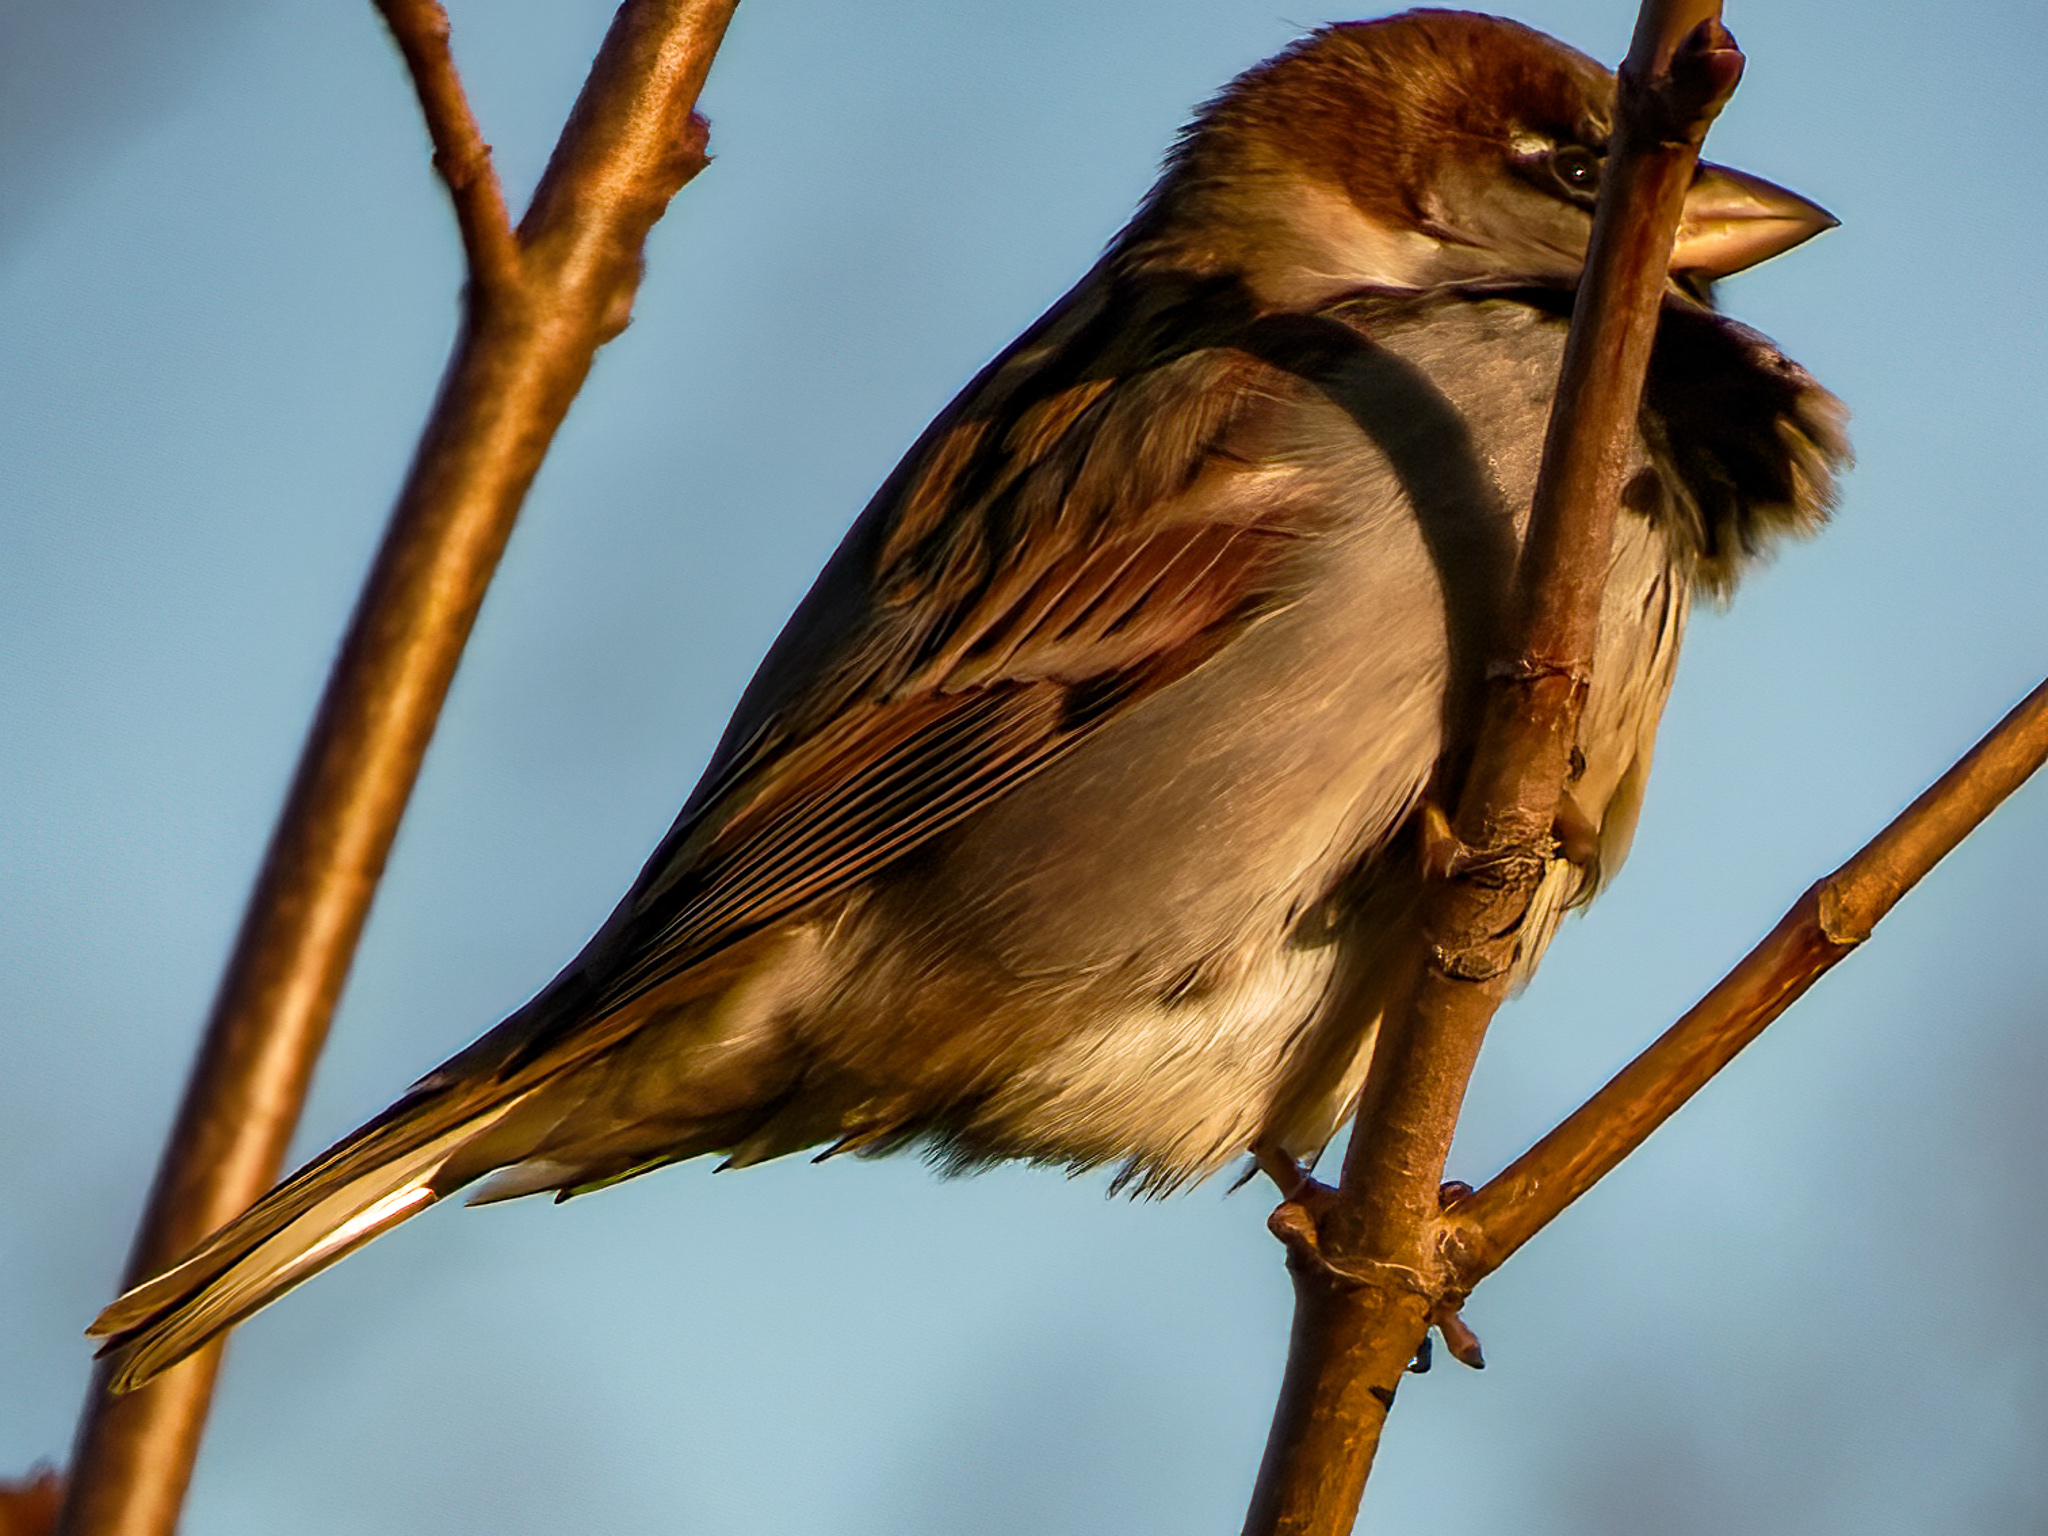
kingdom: Animalia
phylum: Chordata
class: Aves
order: Passeriformes
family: Passeridae
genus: Passer
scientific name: Passer domesticus
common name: House sparrow
